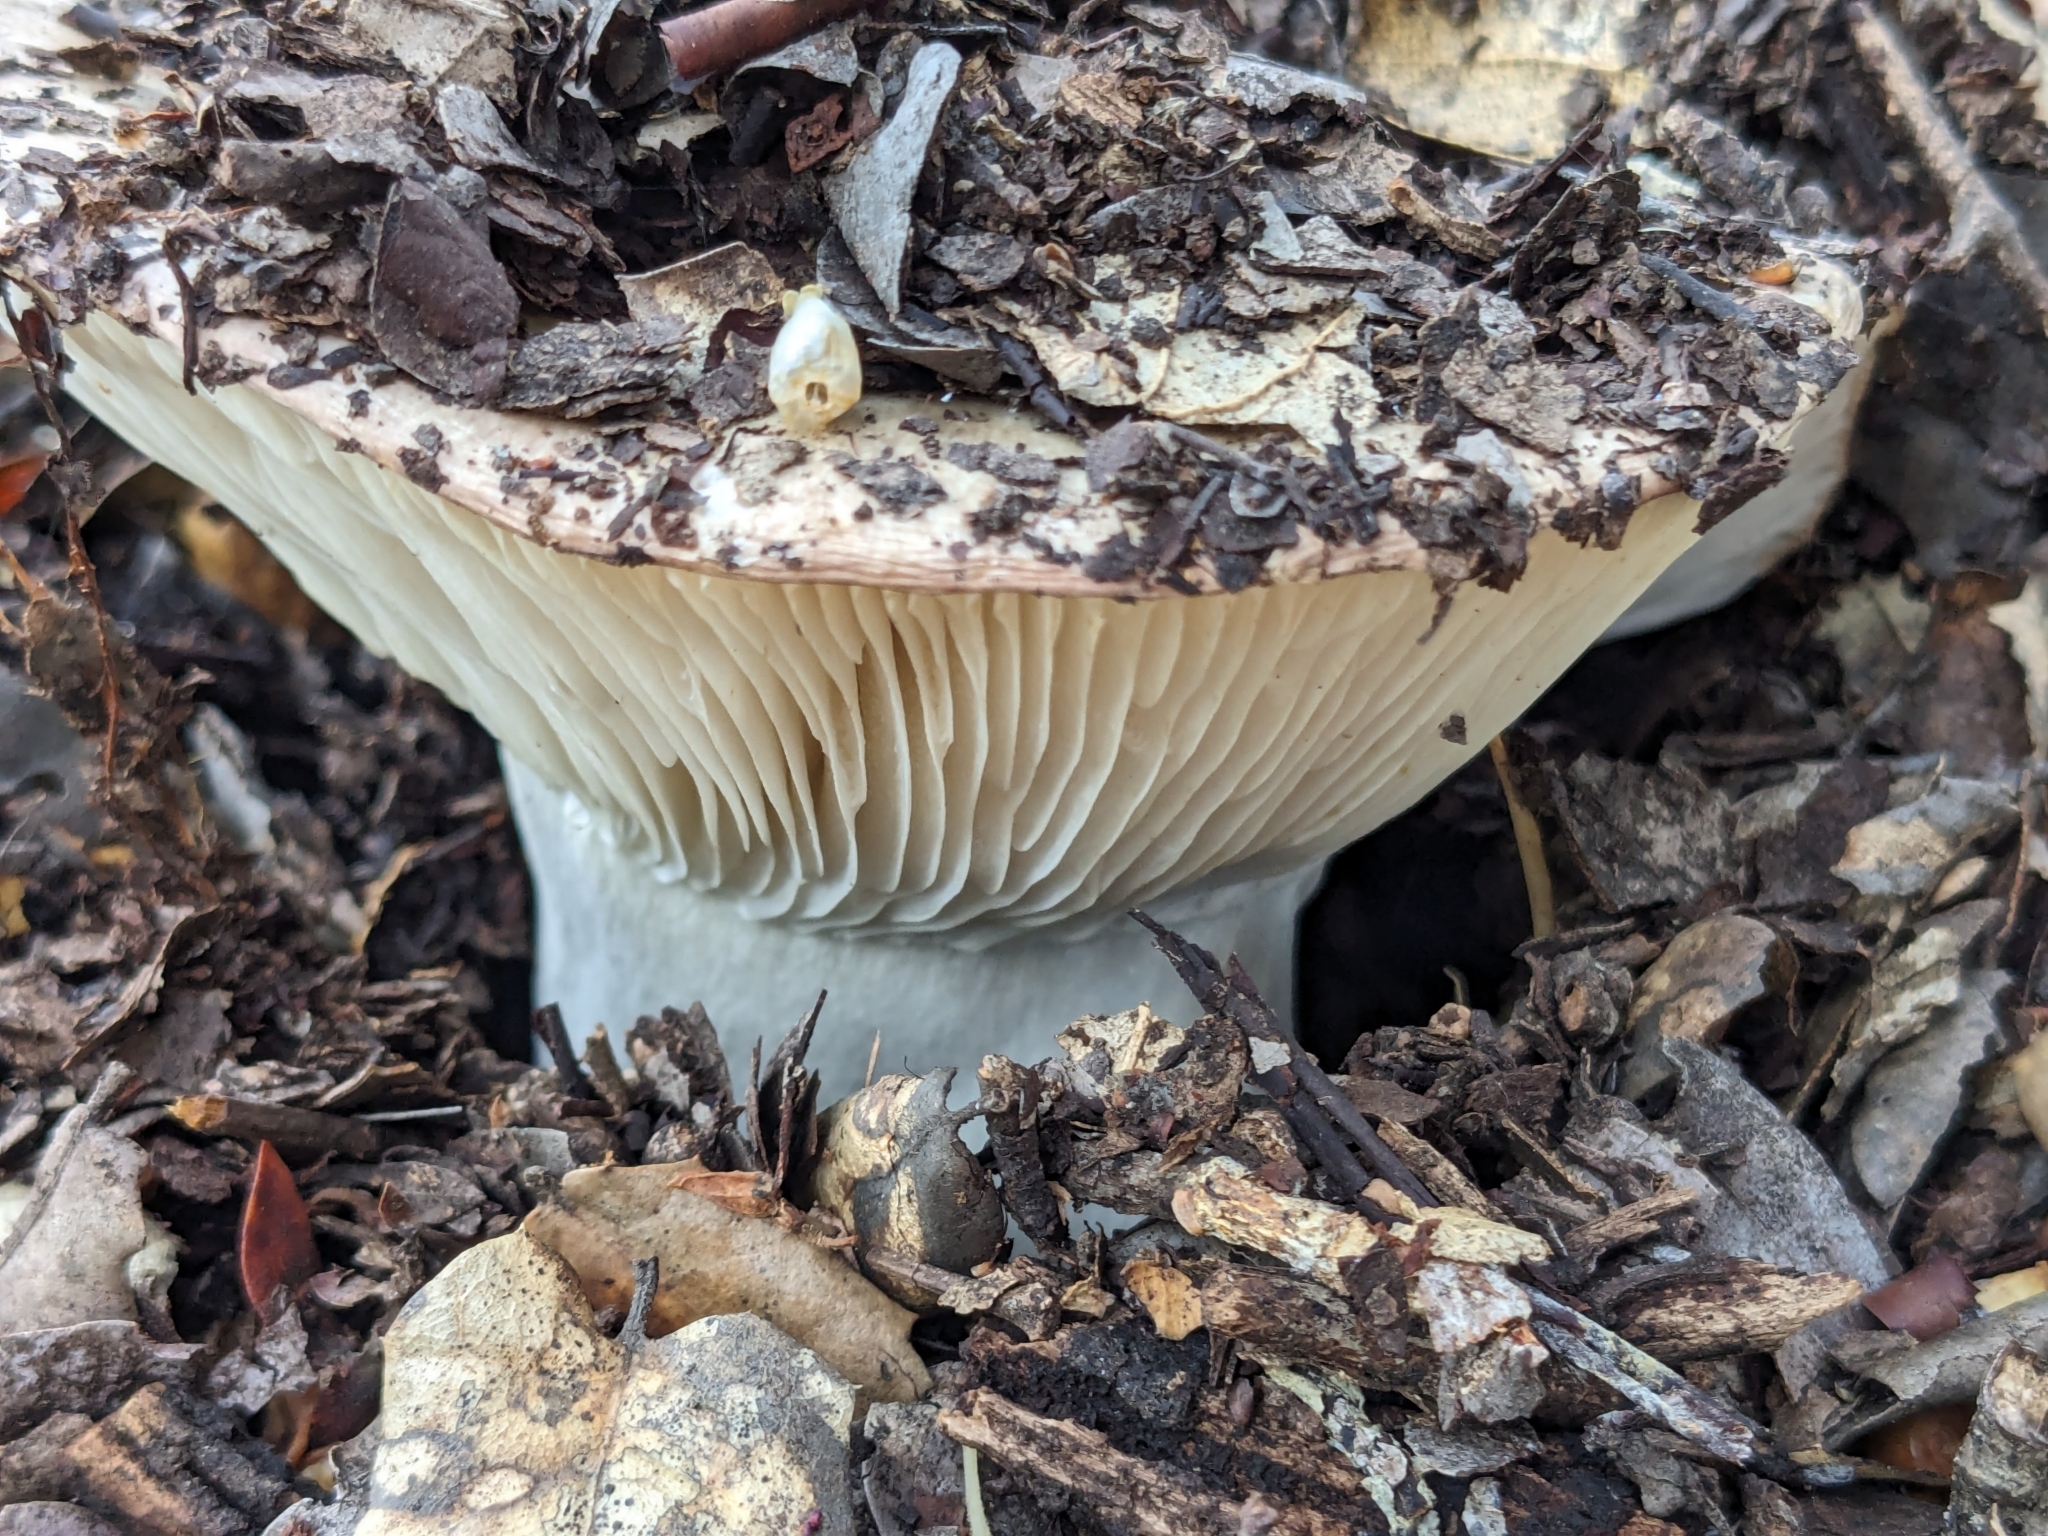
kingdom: Fungi
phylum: Basidiomycota
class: Agaricomycetes
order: Russulales
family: Russulaceae
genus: Russula
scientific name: Russula brevipes
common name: Short-stemmed russula
